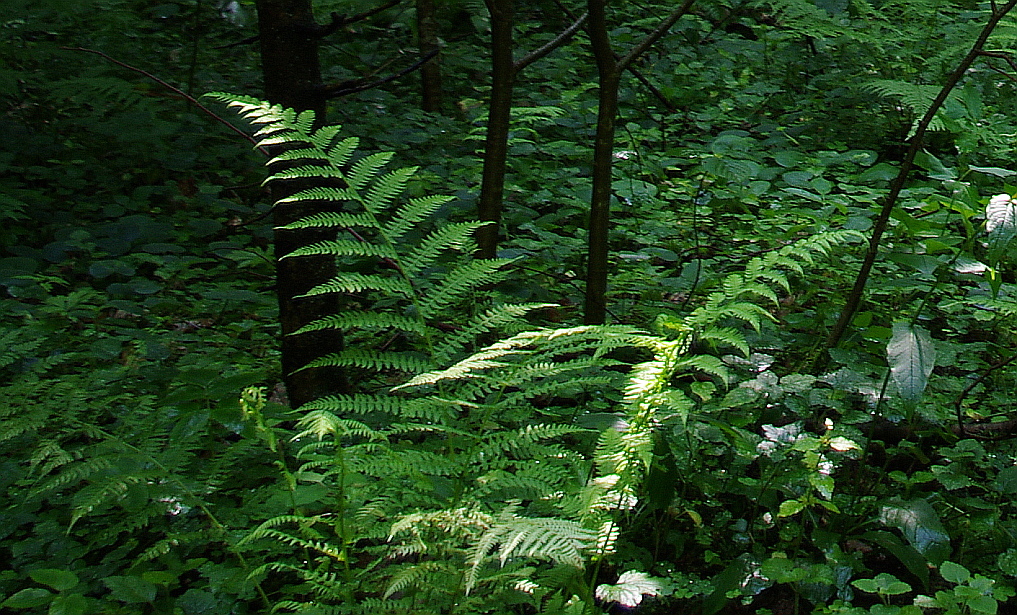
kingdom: Plantae
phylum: Tracheophyta
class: Polypodiopsida
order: Polypodiales
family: Athyriaceae
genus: Athyrium
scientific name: Athyrium filix-femina
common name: Lady fern
